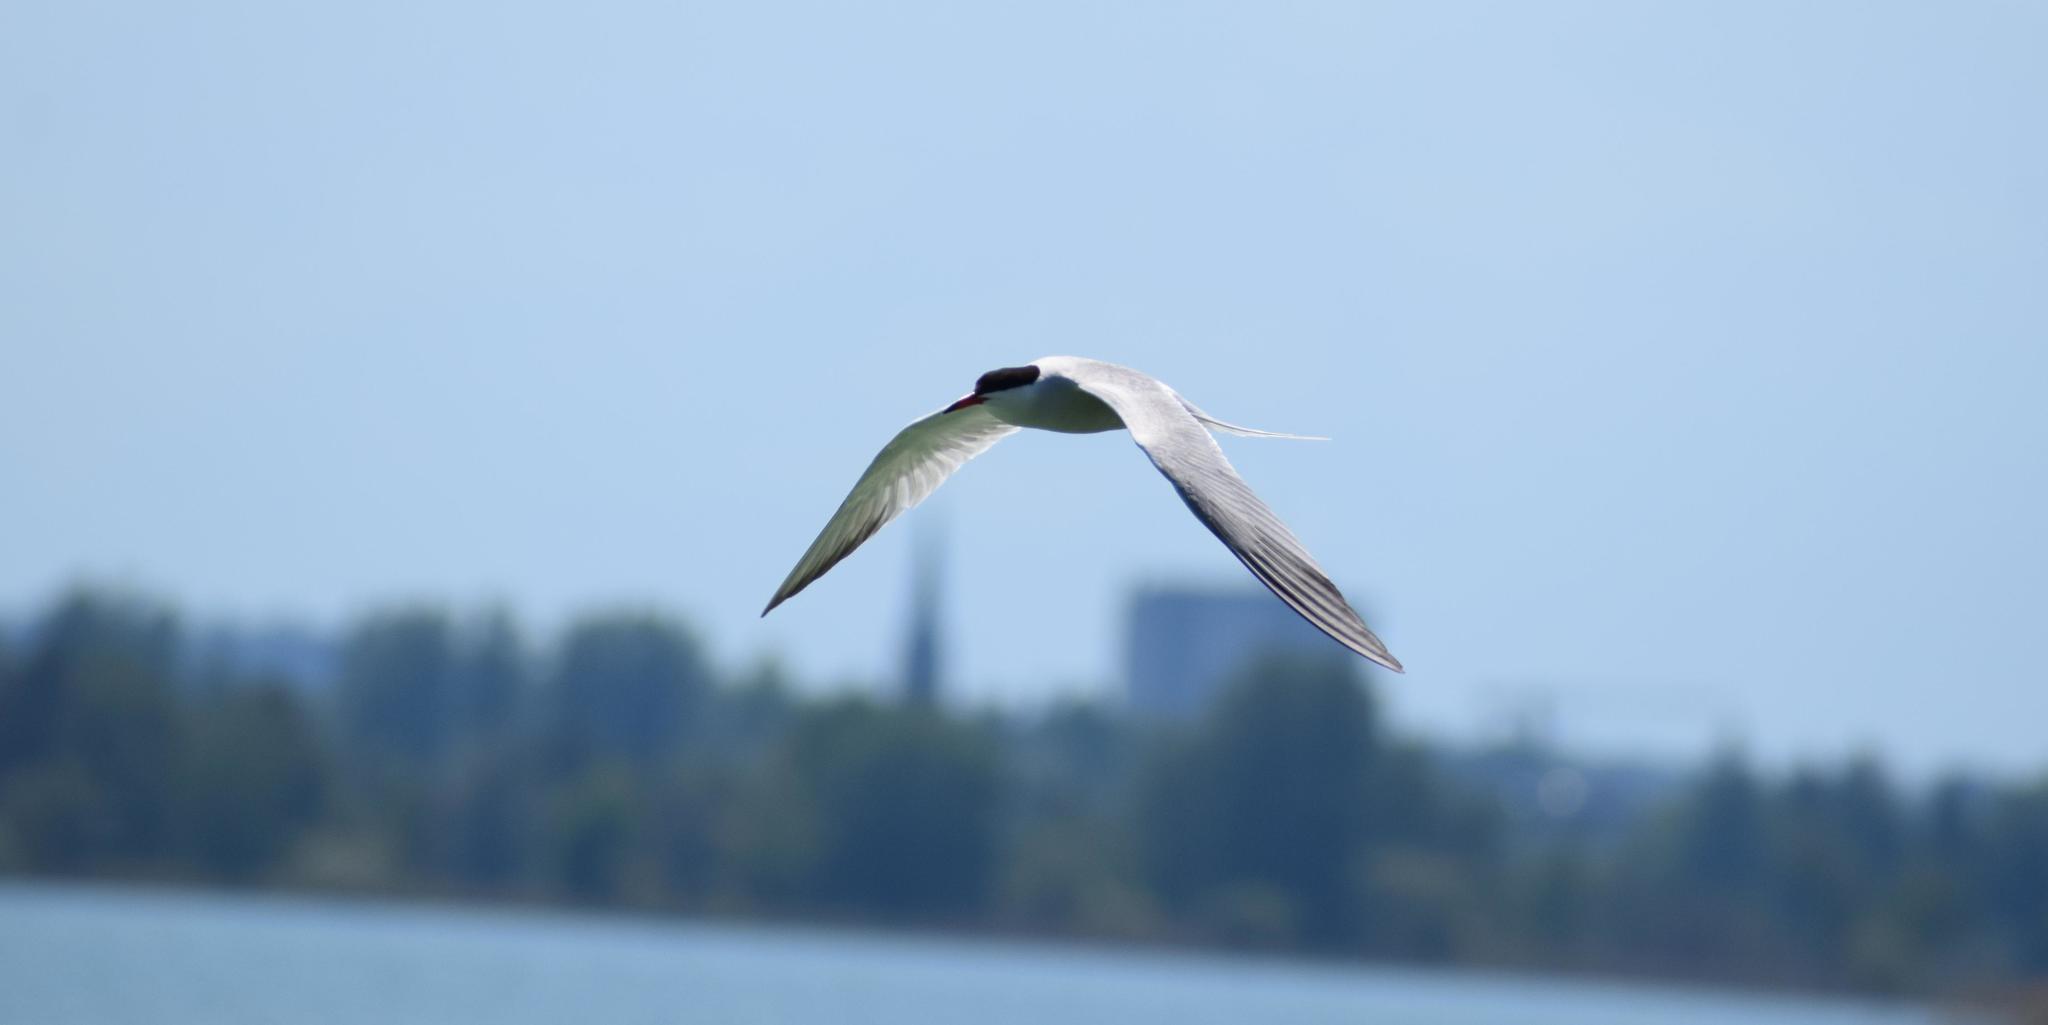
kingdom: Animalia
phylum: Chordata
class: Aves
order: Charadriiformes
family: Laridae
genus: Sterna
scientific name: Sterna hirundo
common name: Common tern
